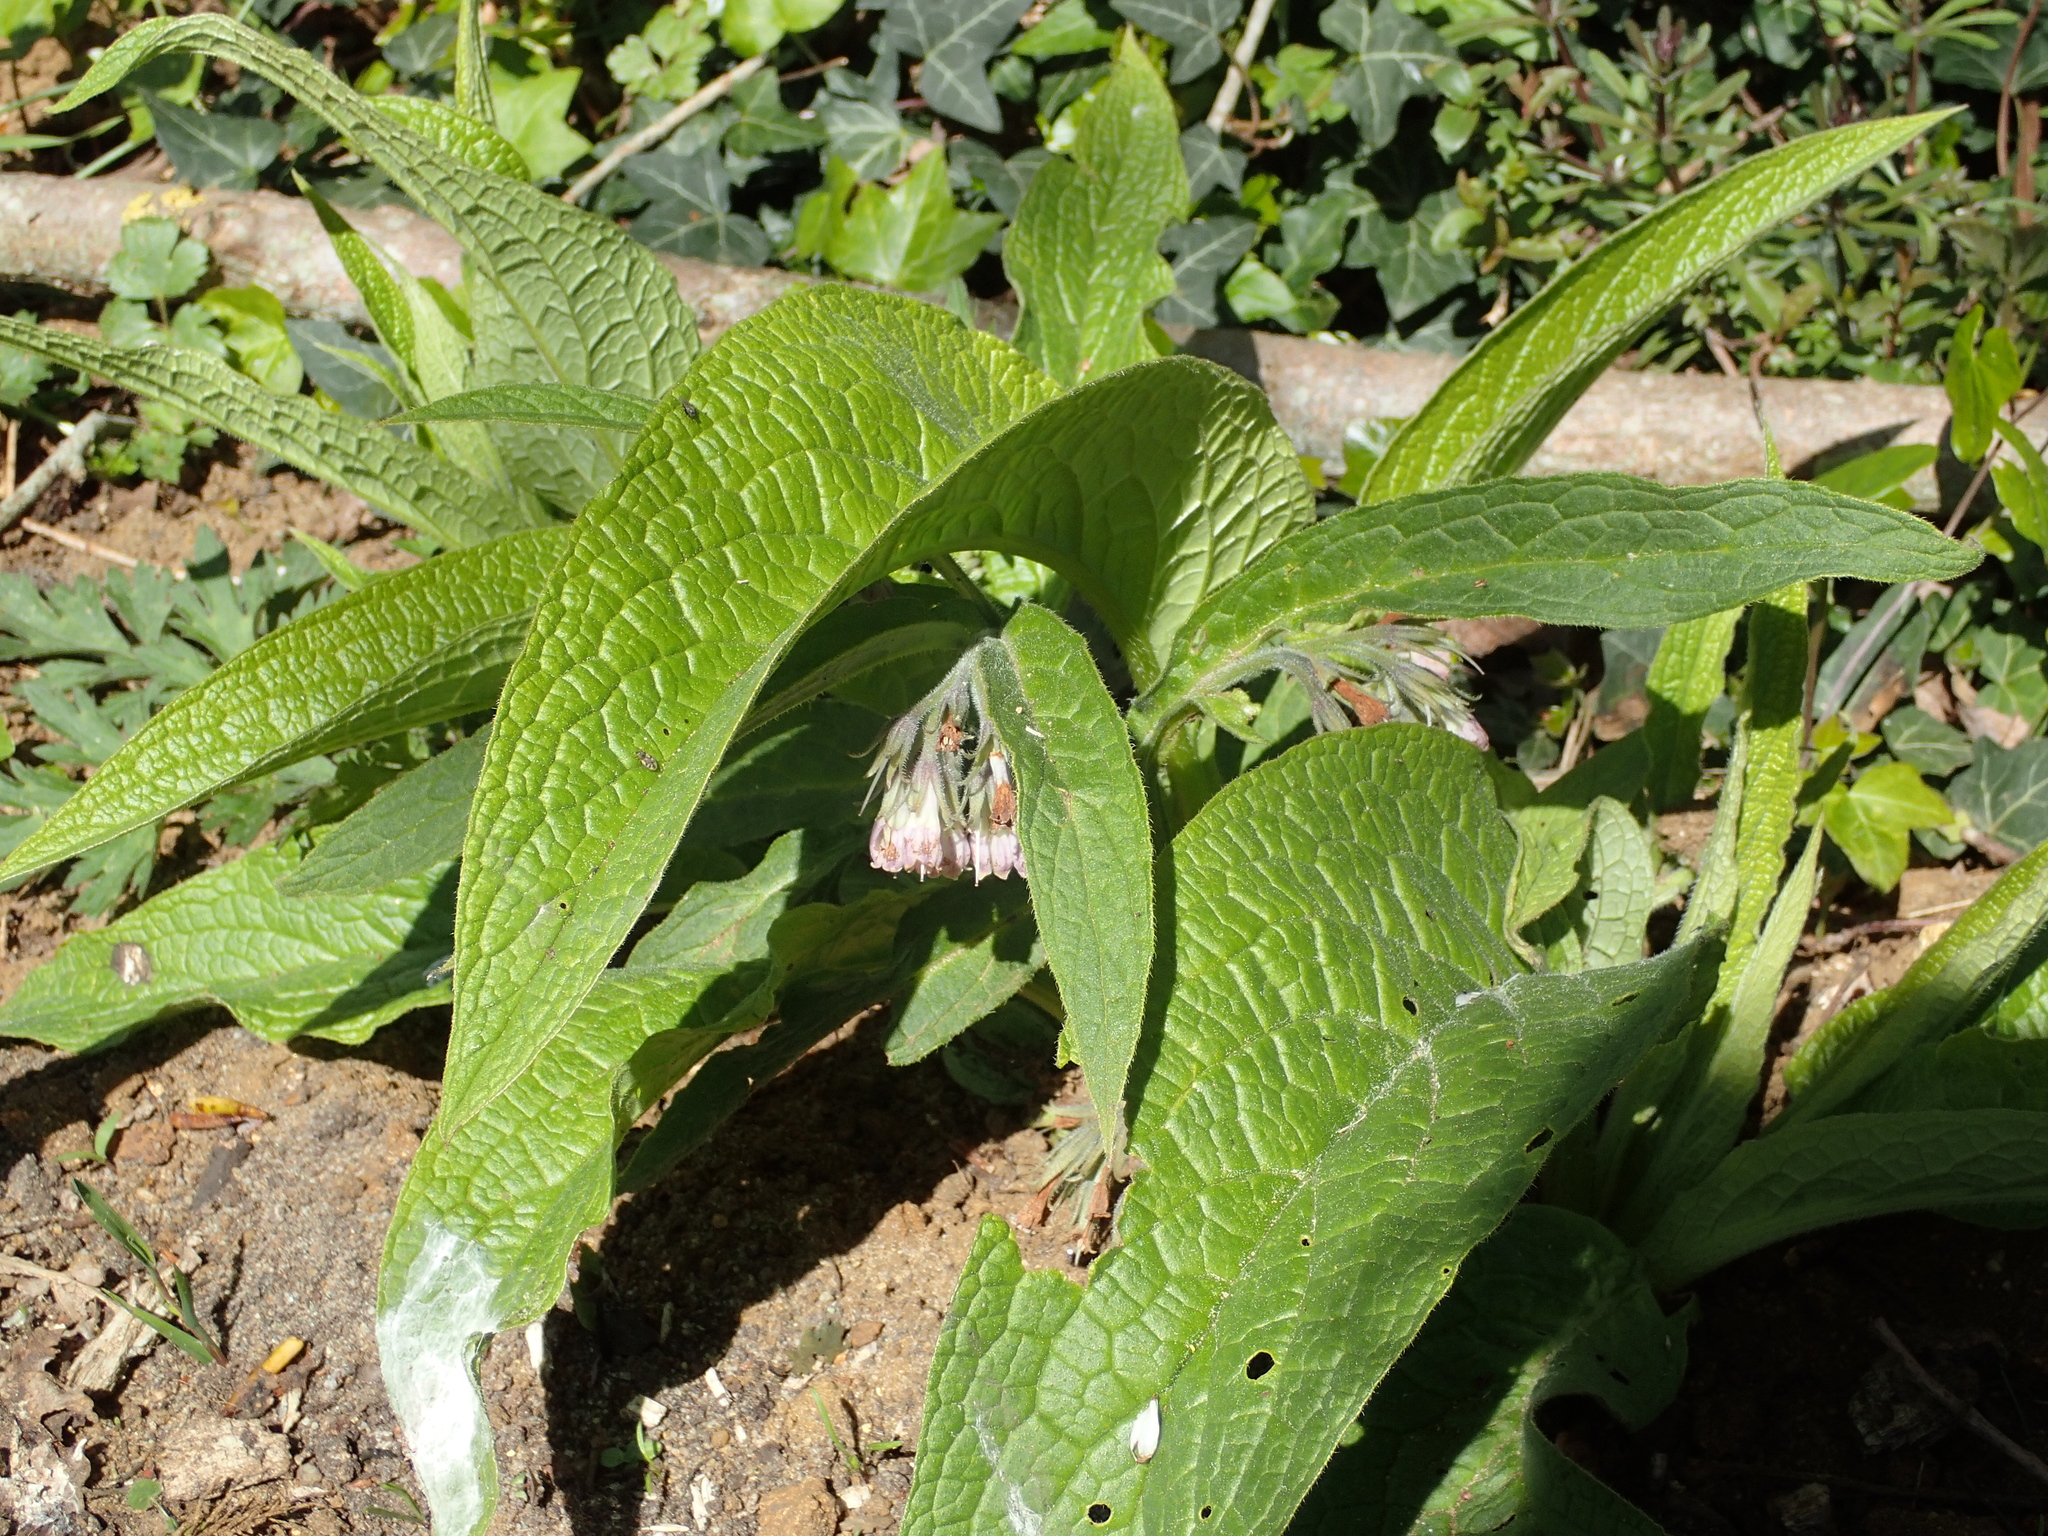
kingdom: Plantae
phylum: Tracheophyta
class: Magnoliopsida
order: Boraginales
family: Boraginaceae
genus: Symphytum
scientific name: Symphytum officinale
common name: Common comfrey
